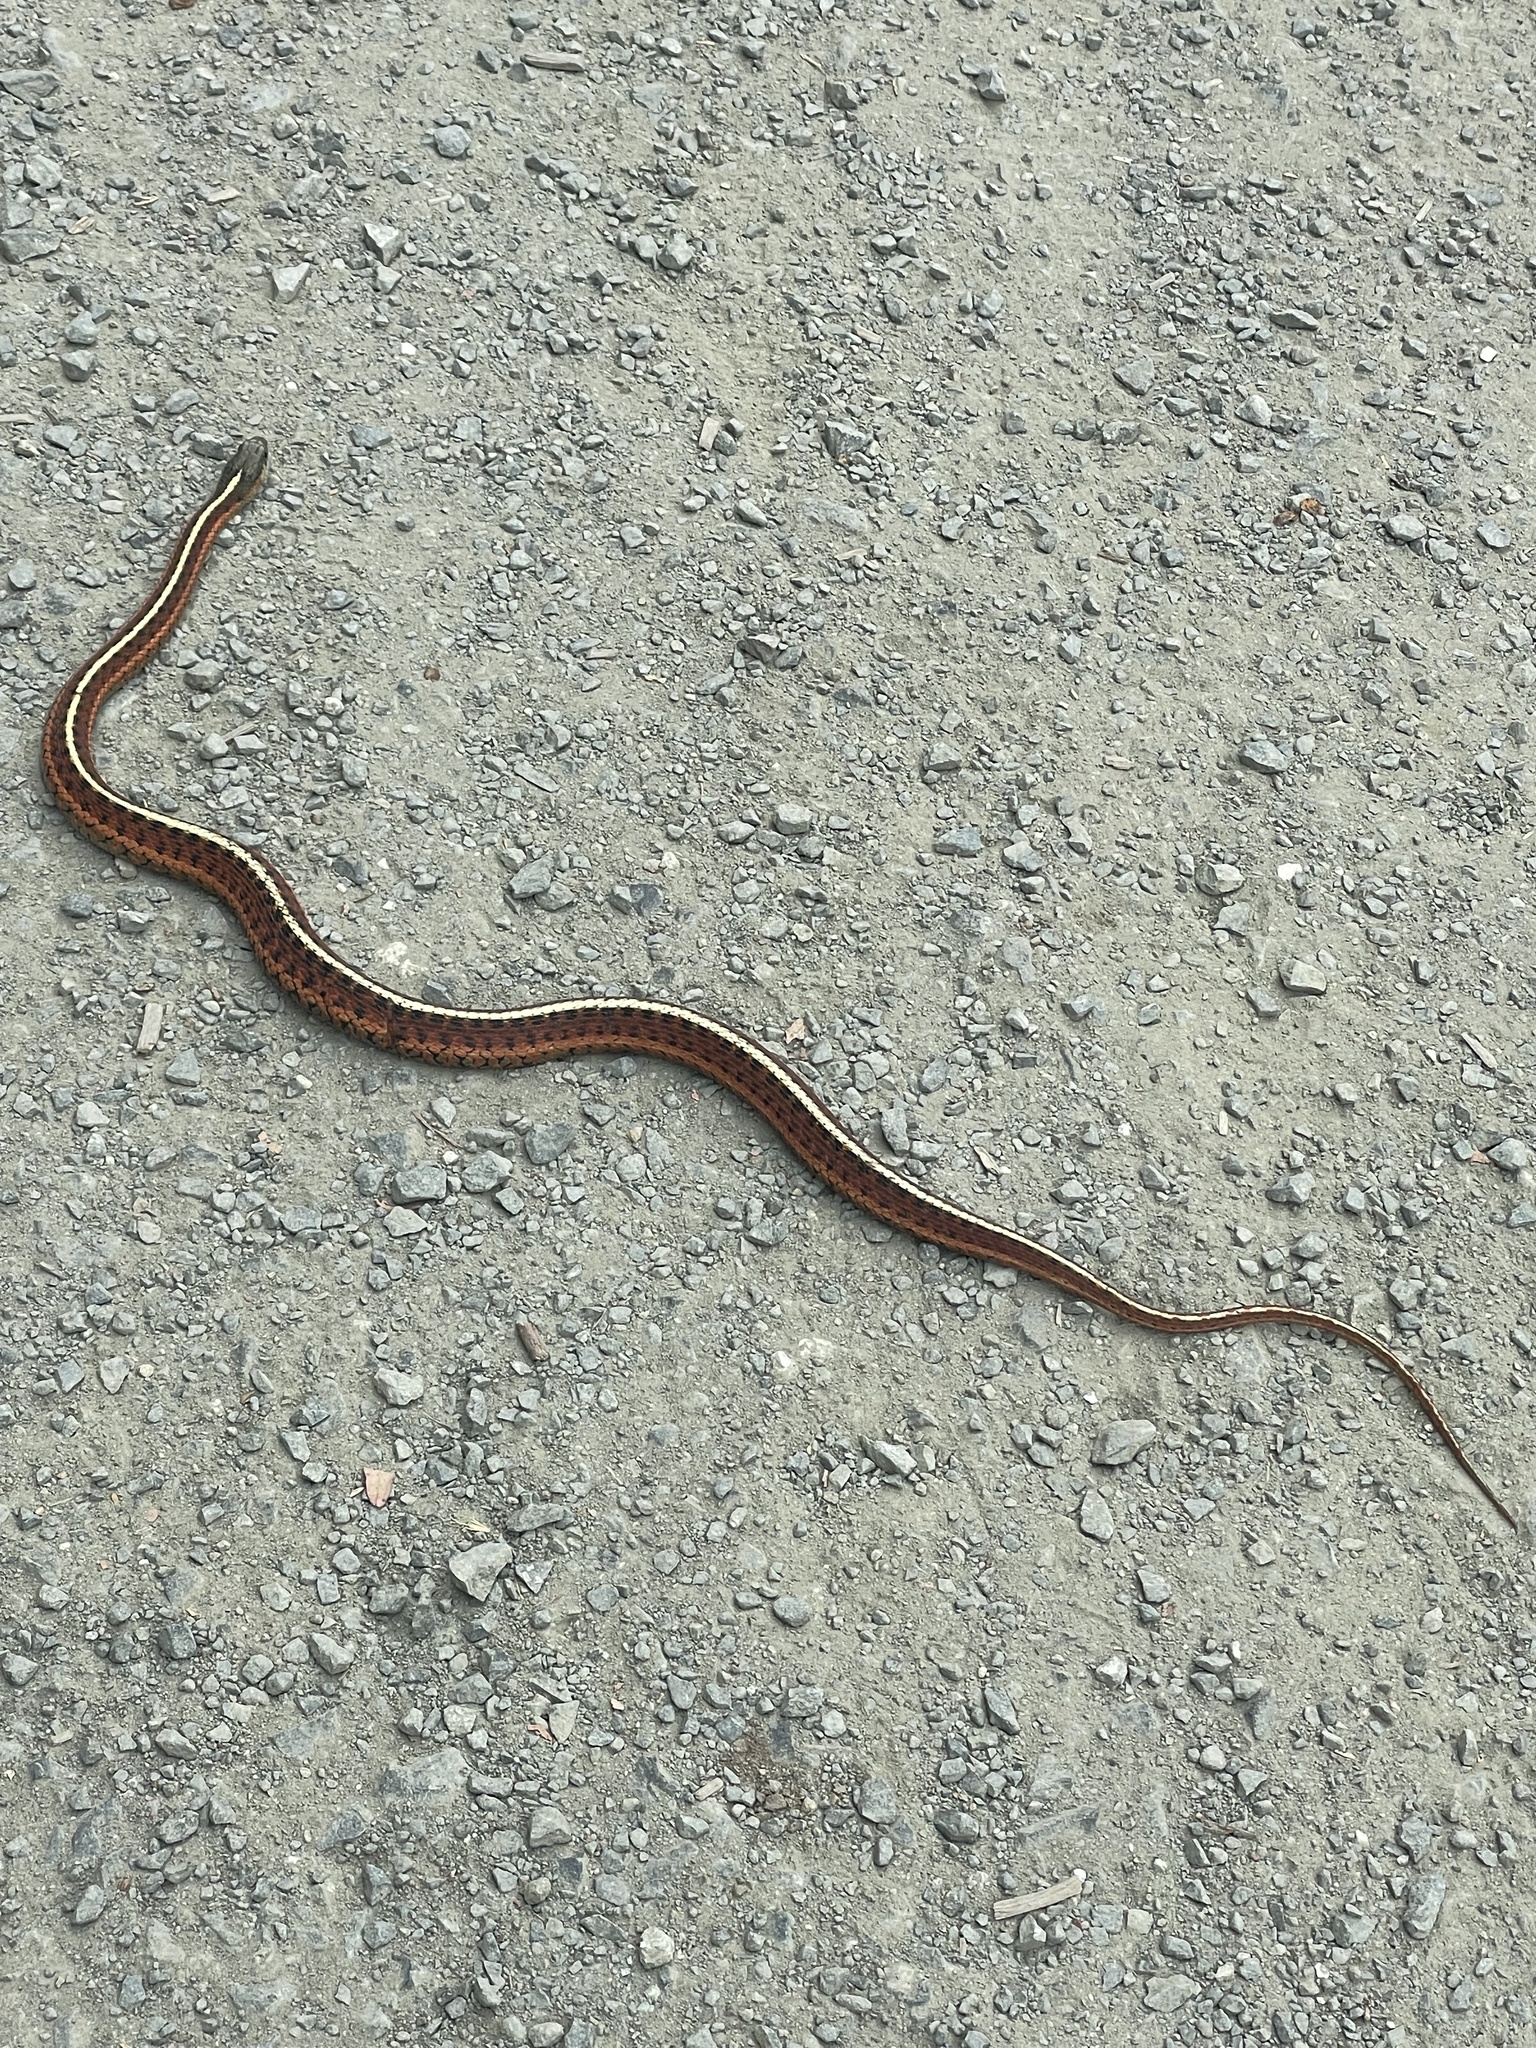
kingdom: Animalia
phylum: Chordata
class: Squamata
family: Colubridae
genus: Thamnophis
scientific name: Thamnophis elegans
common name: Western terrestrial garter snake
